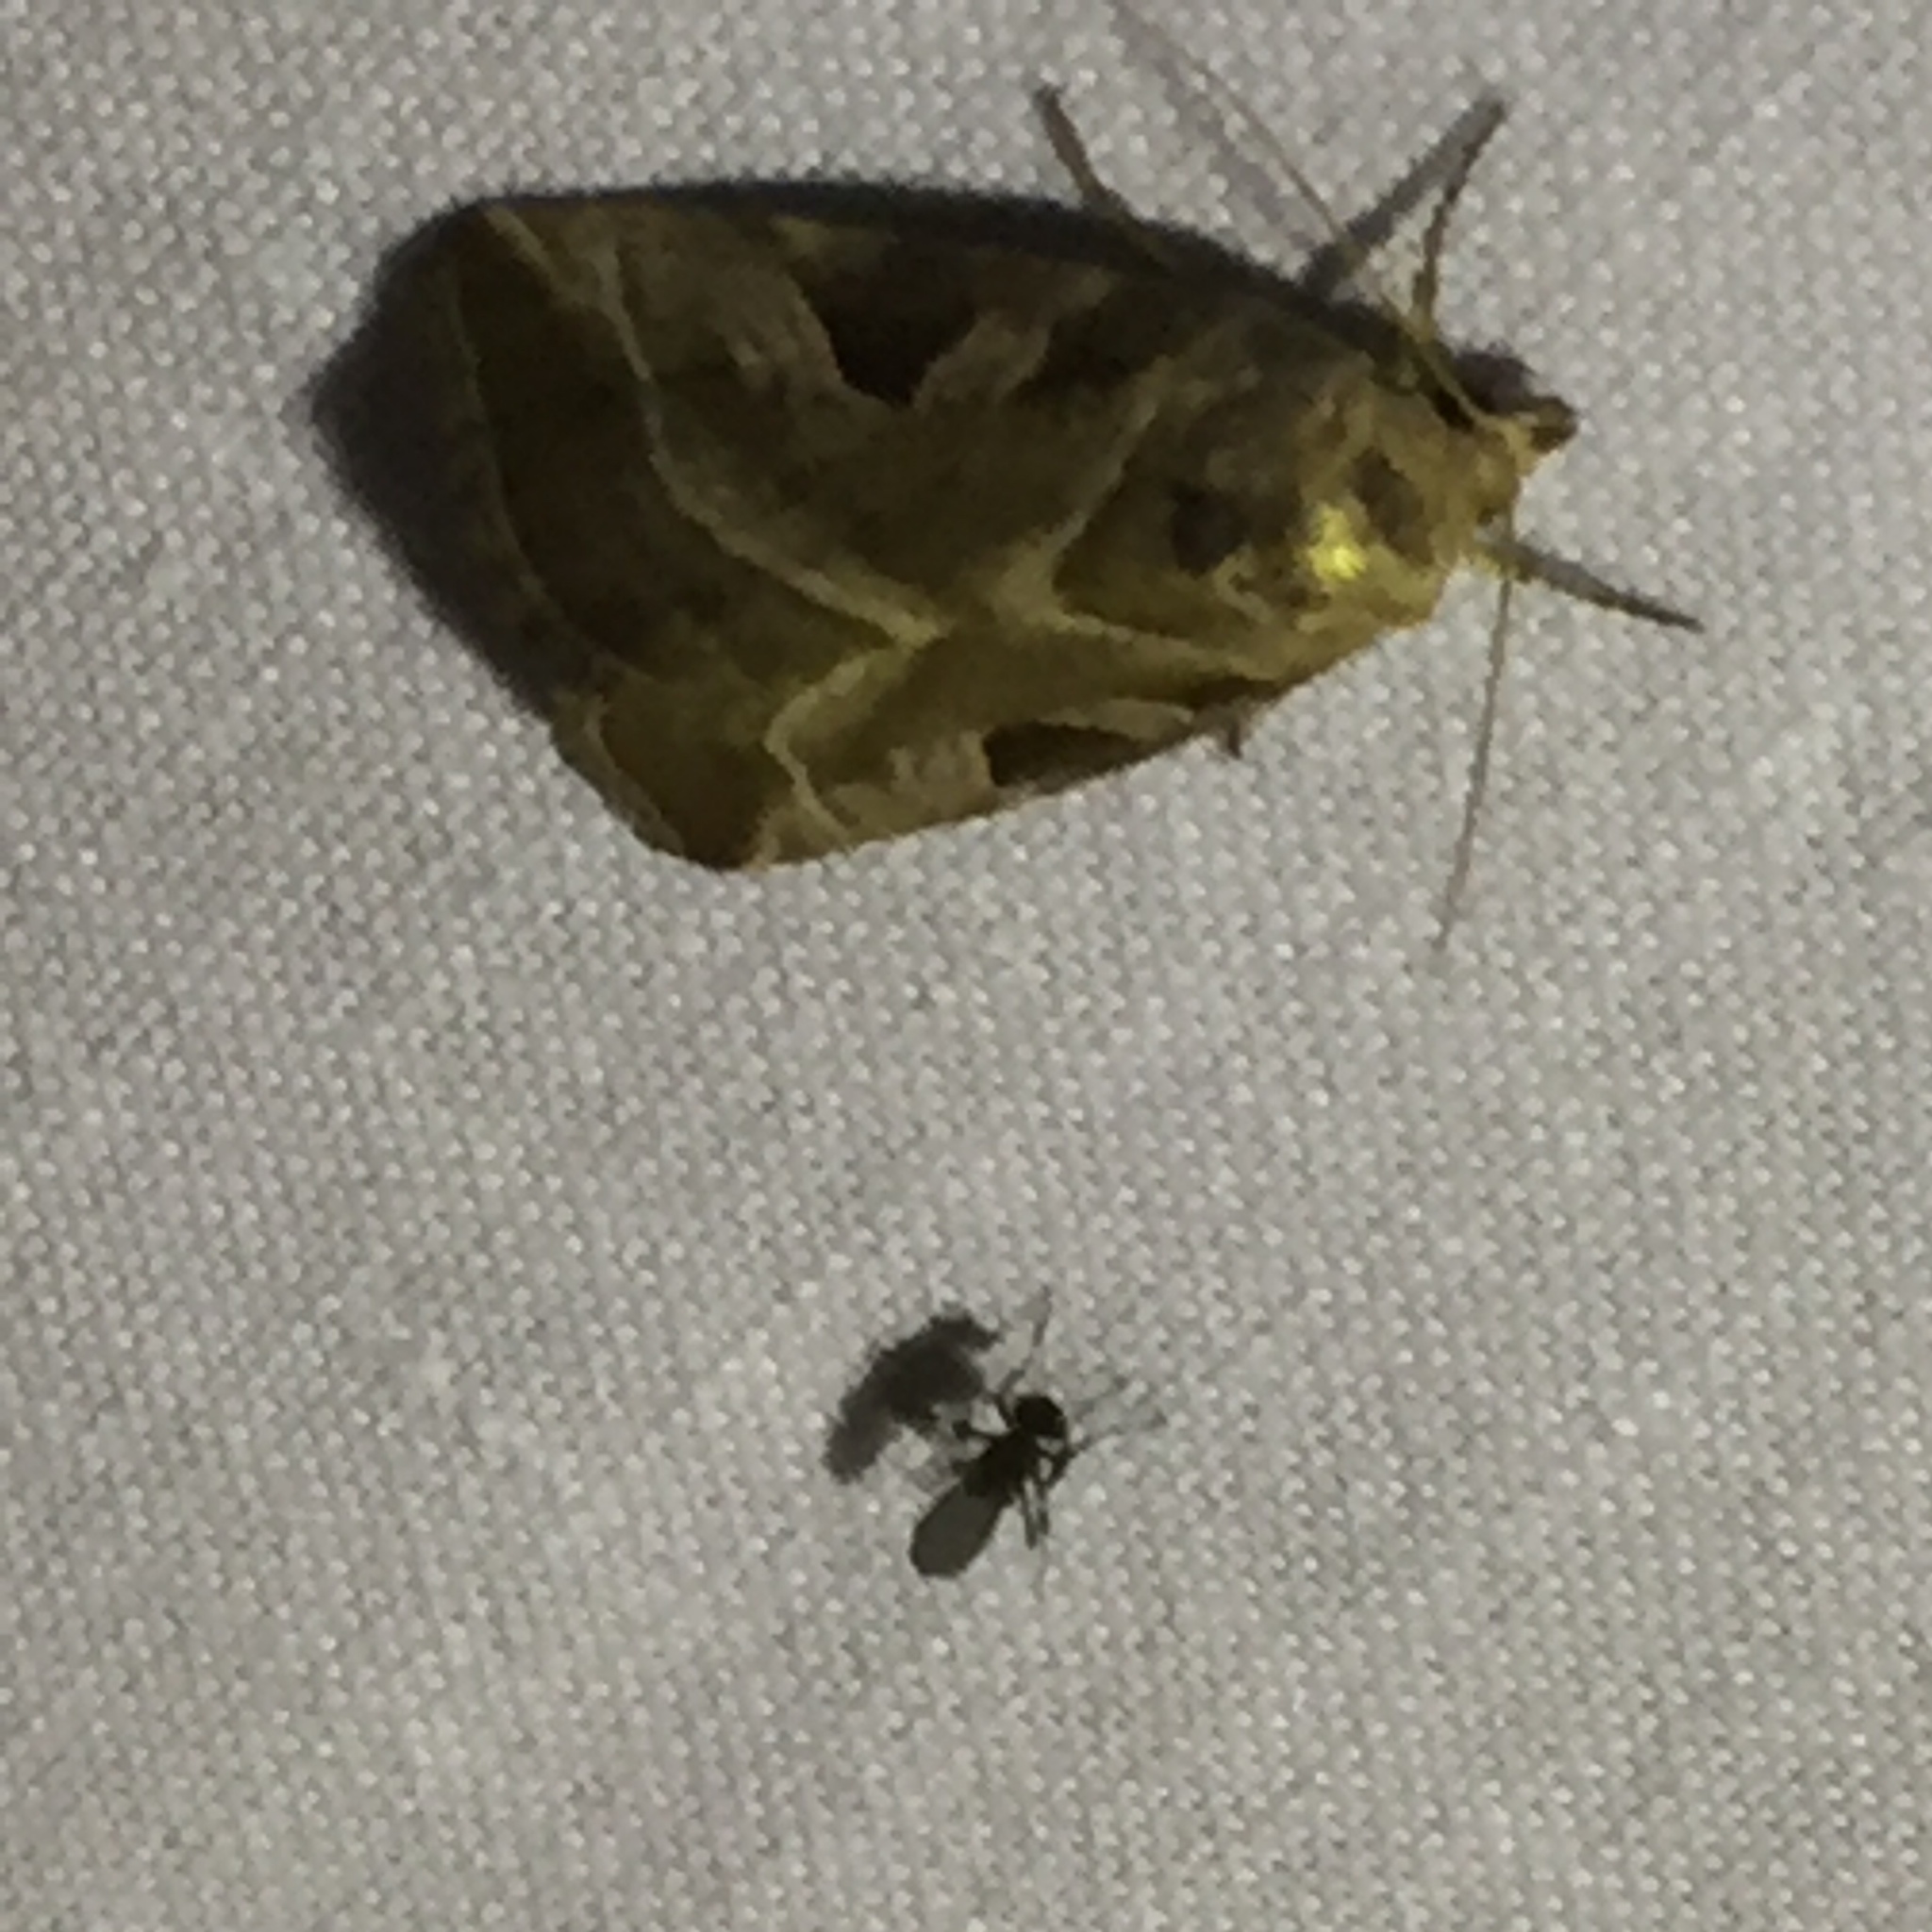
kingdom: Animalia
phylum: Arthropoda
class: Insecta
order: Lepidoptera
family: Noctuidae
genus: Eucarta
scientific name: Eucarta virgo
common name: Silvery gem
